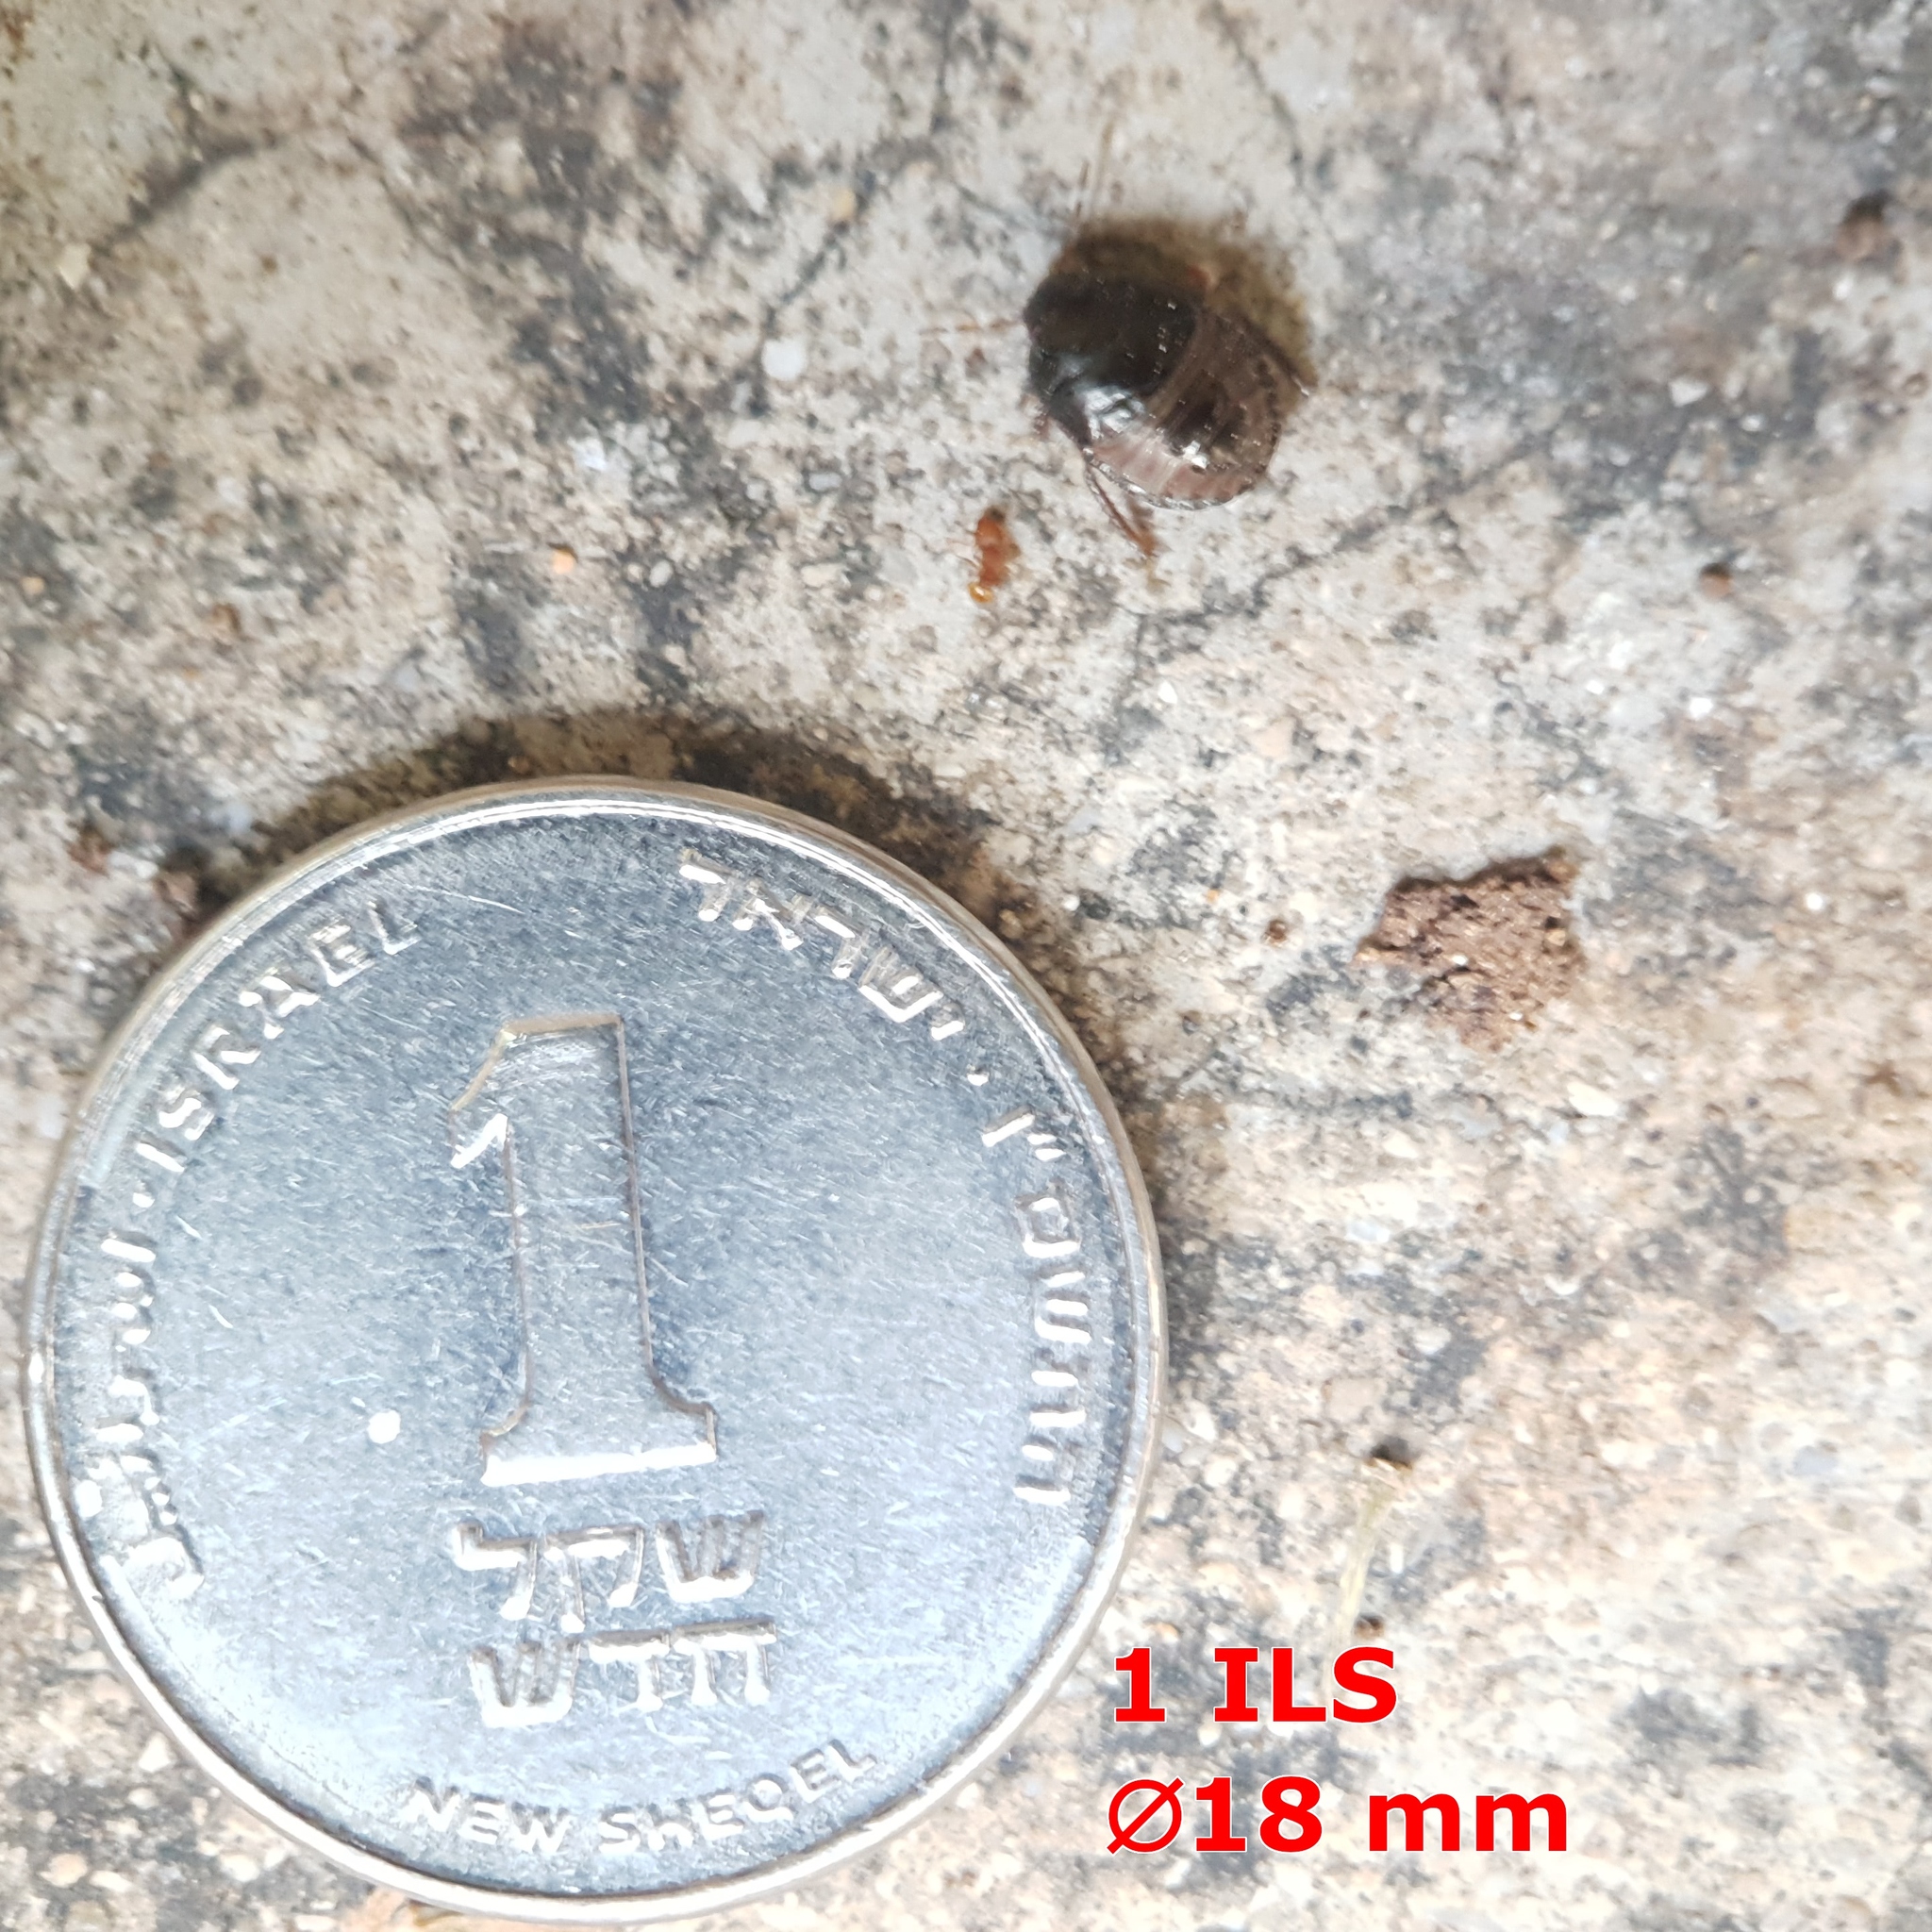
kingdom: Animalia
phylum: Arthropoda
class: Insecta
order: Hemiptera
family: Cydnidae
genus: Macroscytus
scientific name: Macroscytus brunneus
